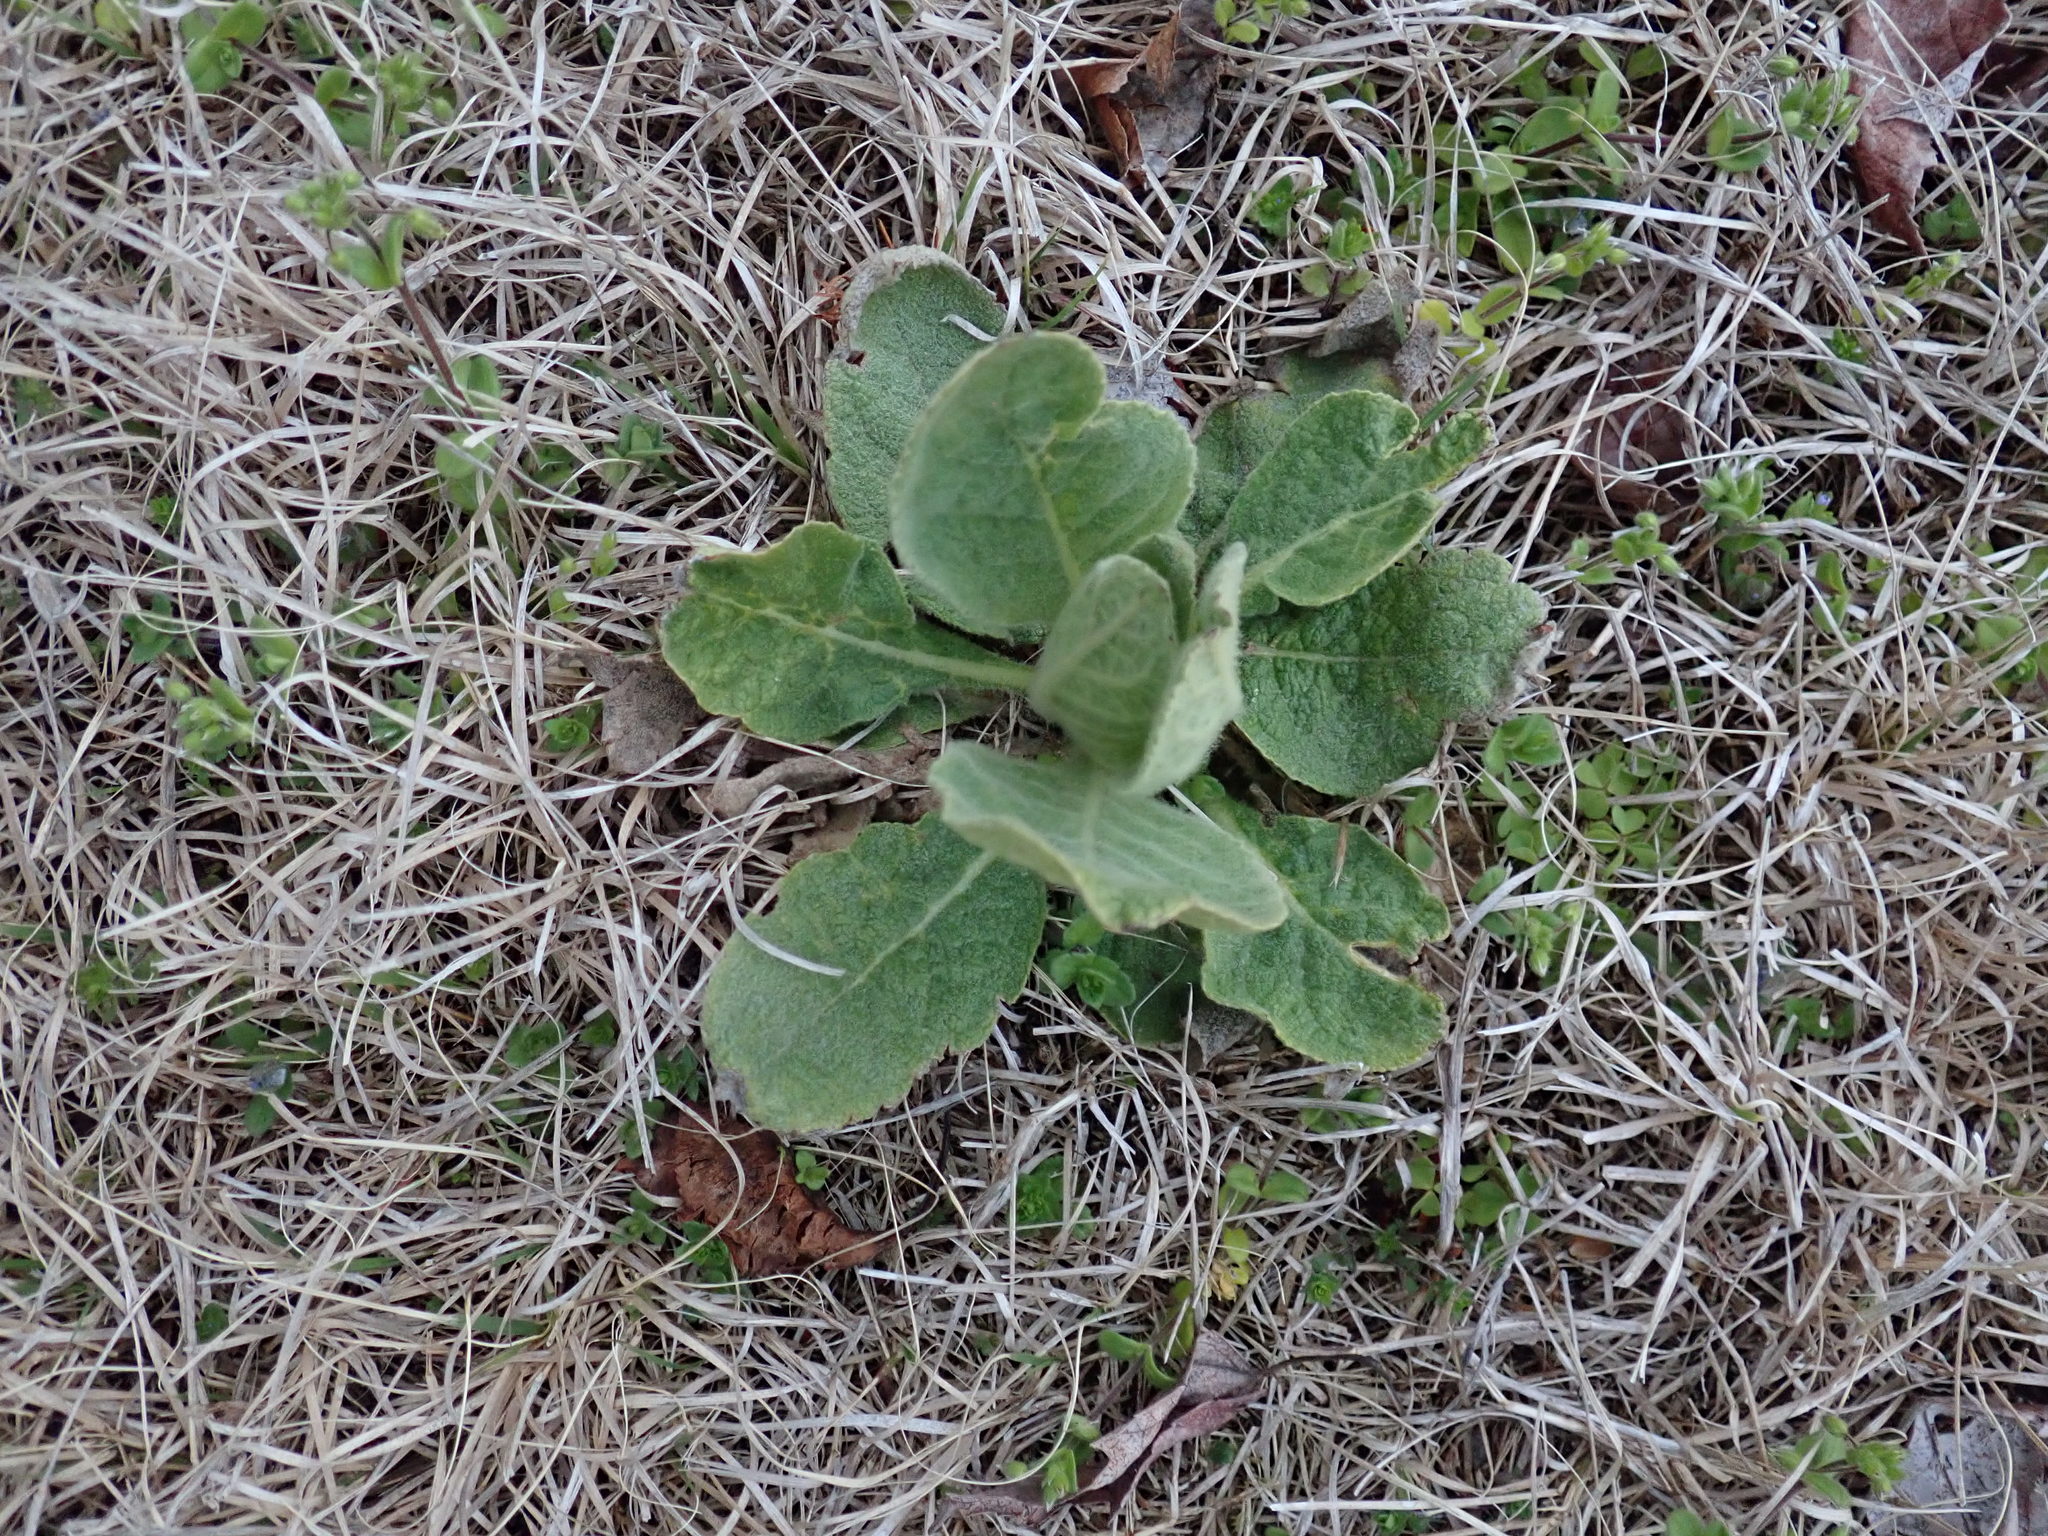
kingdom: Plantae
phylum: Tracheophyta
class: Magnoliopsida
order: Lamiales
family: Scrophulariaceae
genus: Verbascum
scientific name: Verbascum thapsus
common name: Common mullein
